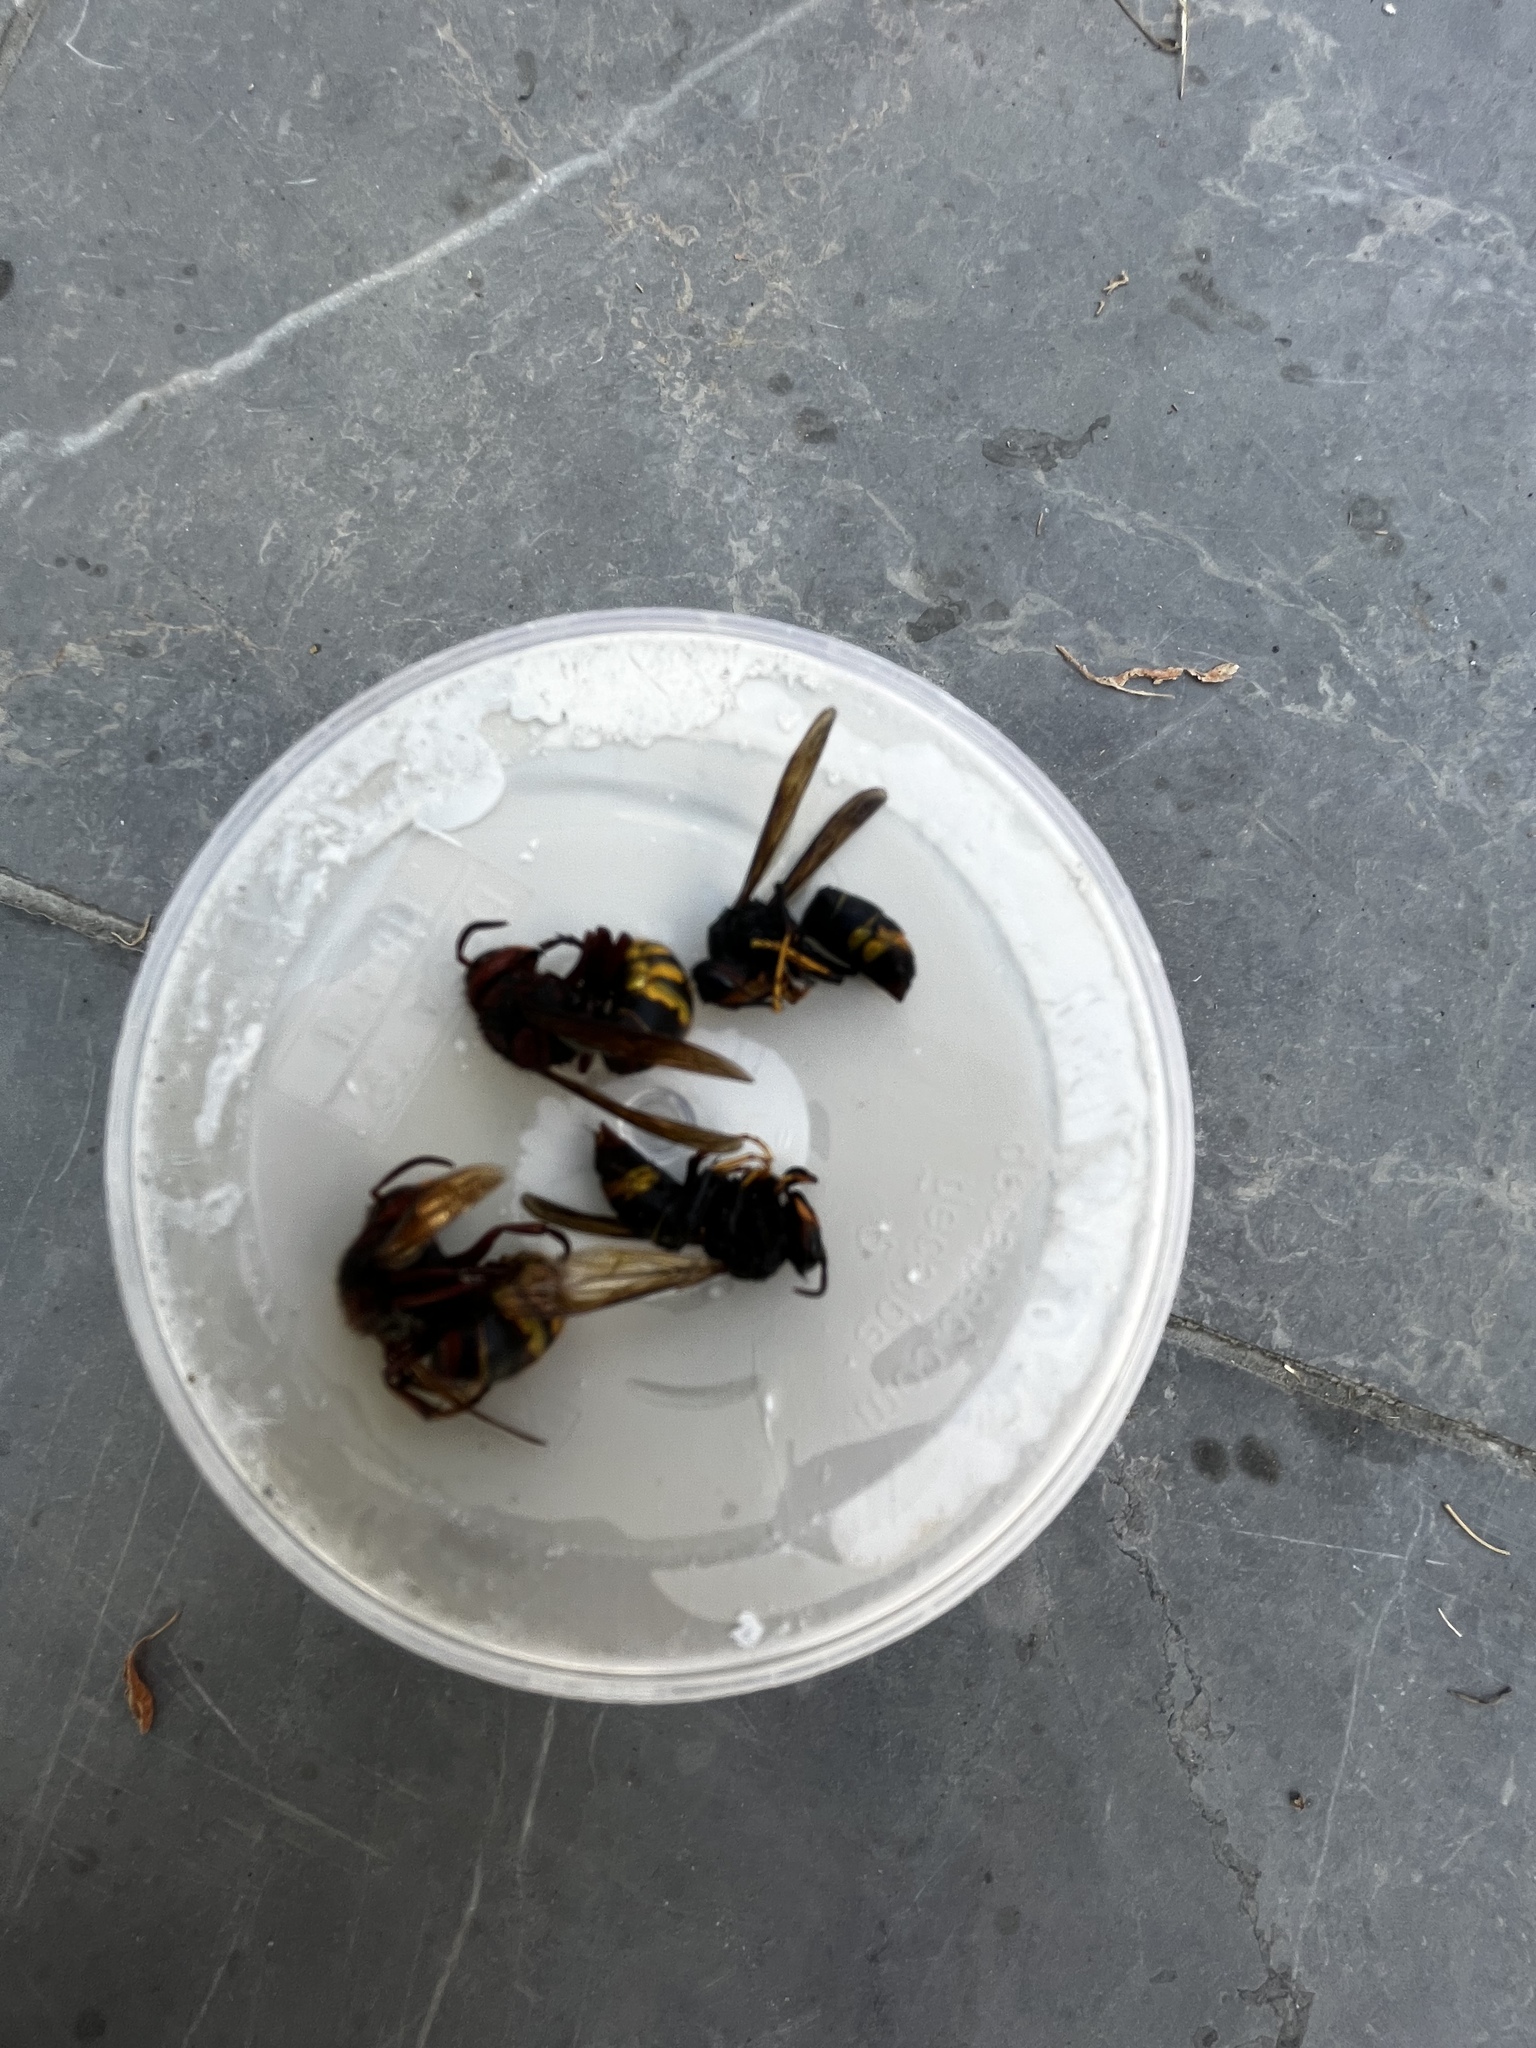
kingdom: Animalia
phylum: Arthropoda
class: Insecta
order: Hymenoptera
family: Vespidae
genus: Vespa
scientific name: Vespa velutina
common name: Asian hornet
